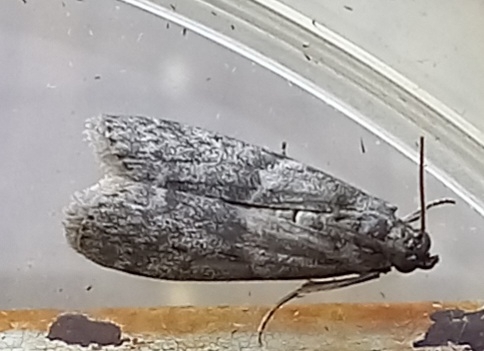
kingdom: Animalia
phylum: Arthropoda
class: Insecta
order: Lepidoptera
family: Pyralidae
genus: Ectomyelois
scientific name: Ectomyelois ceratoniae
